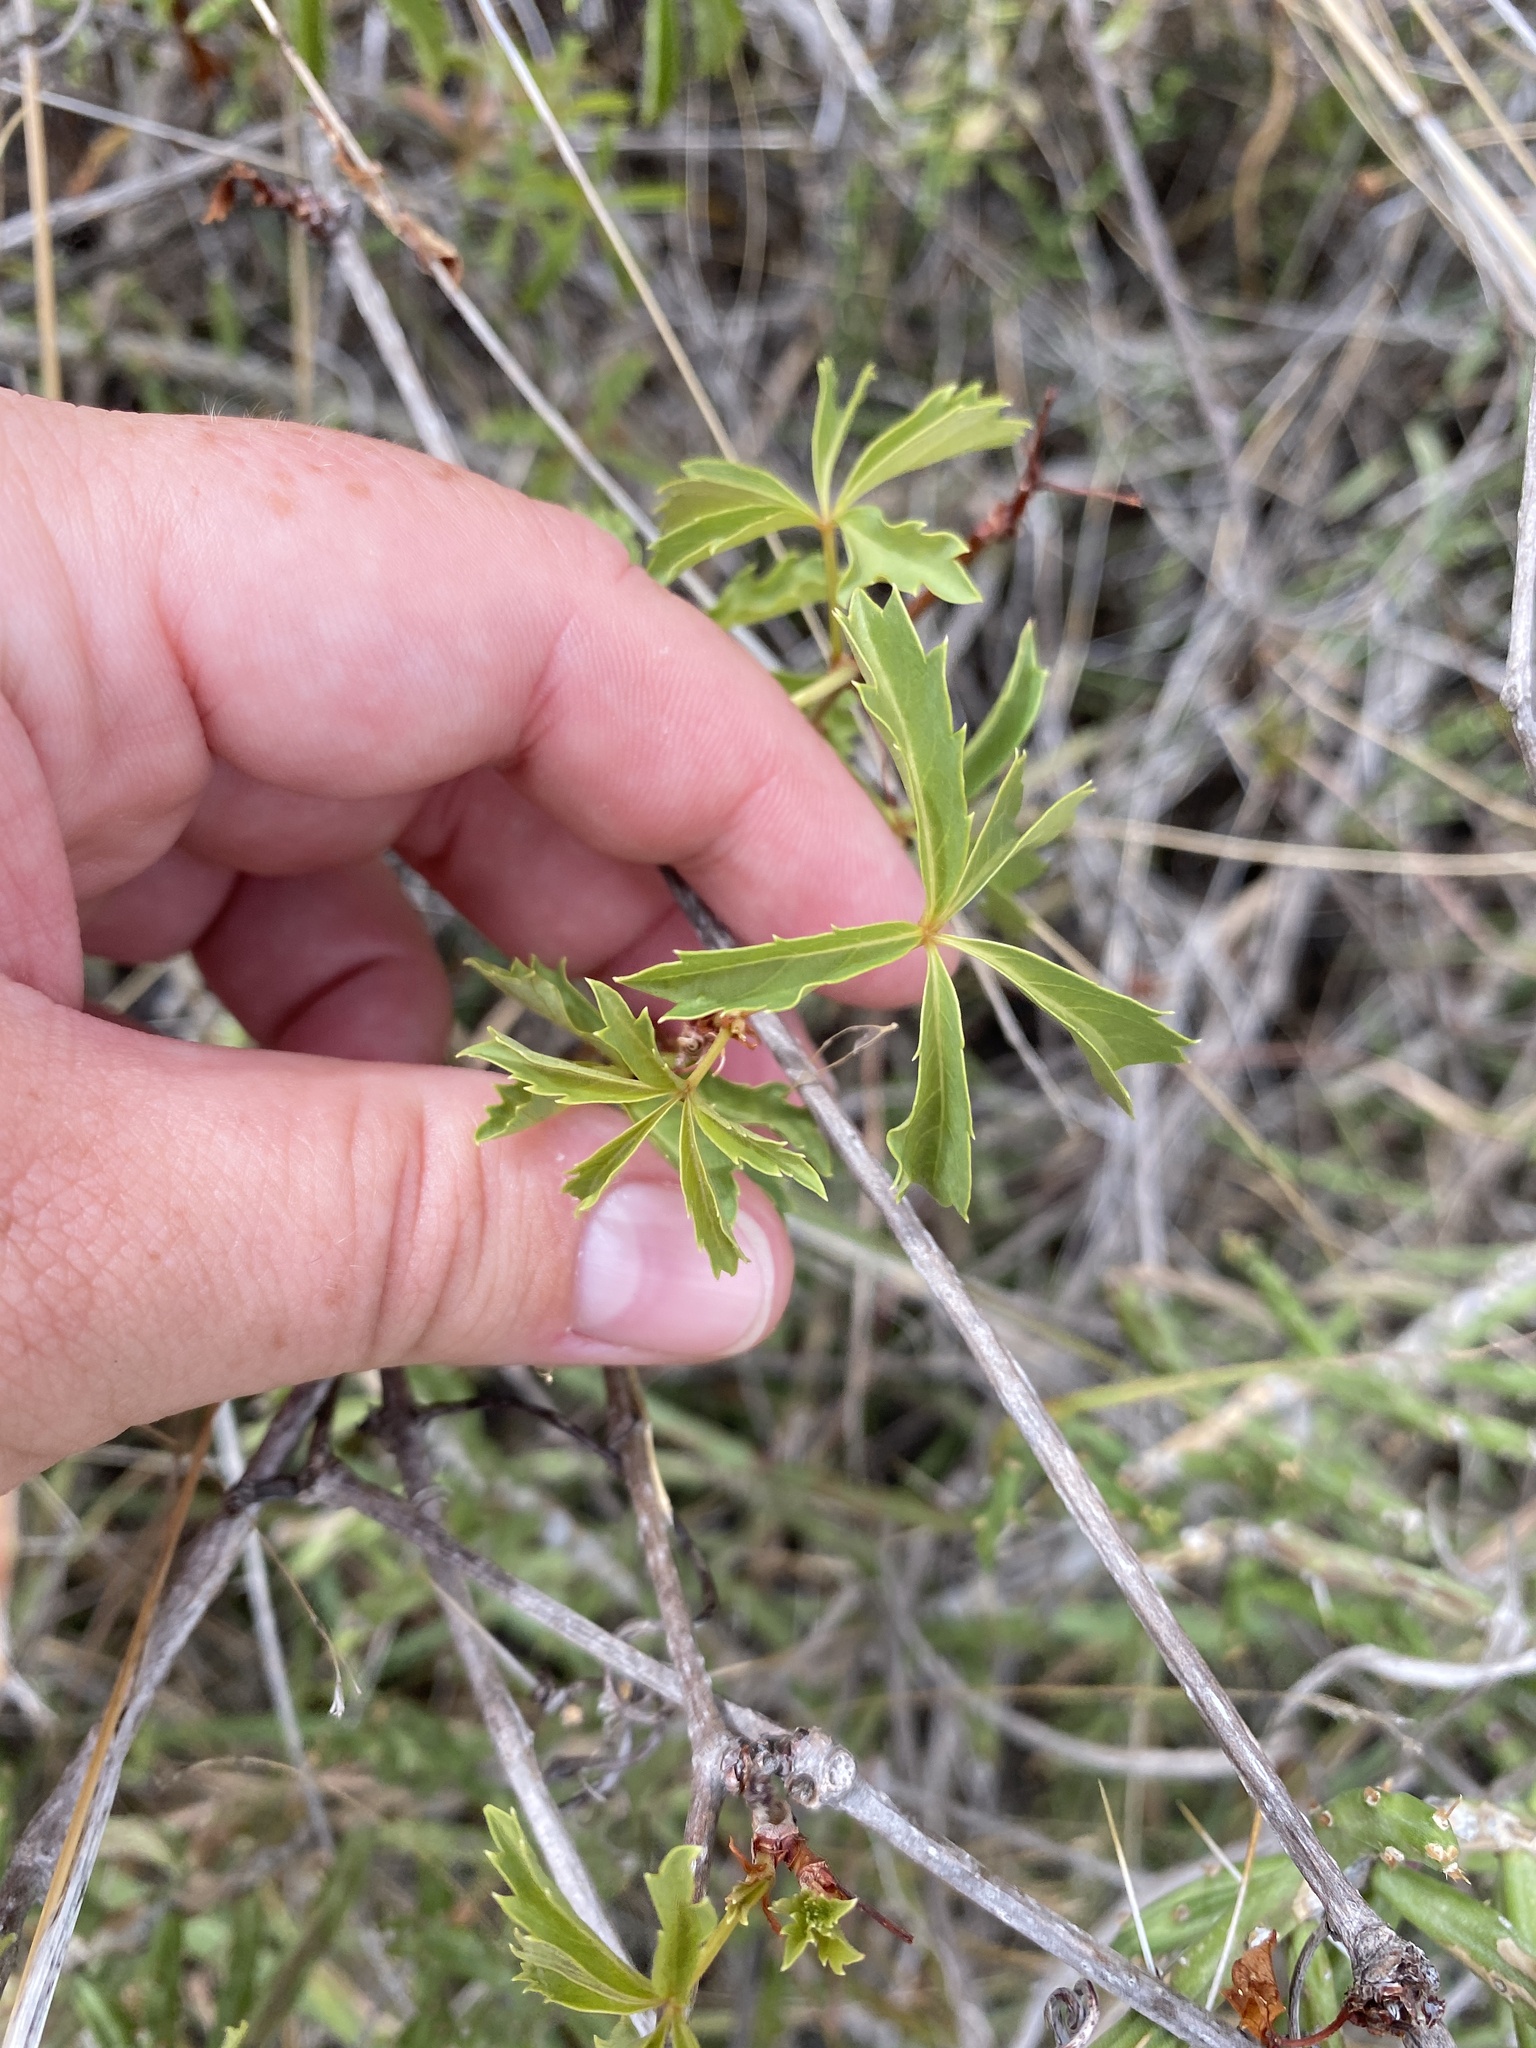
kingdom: Plantae
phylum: Tracheophyta
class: Magnoliopsida
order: Vitales
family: Vitaceae
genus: Parthenocissus
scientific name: Parthenocissus heptaphylla
